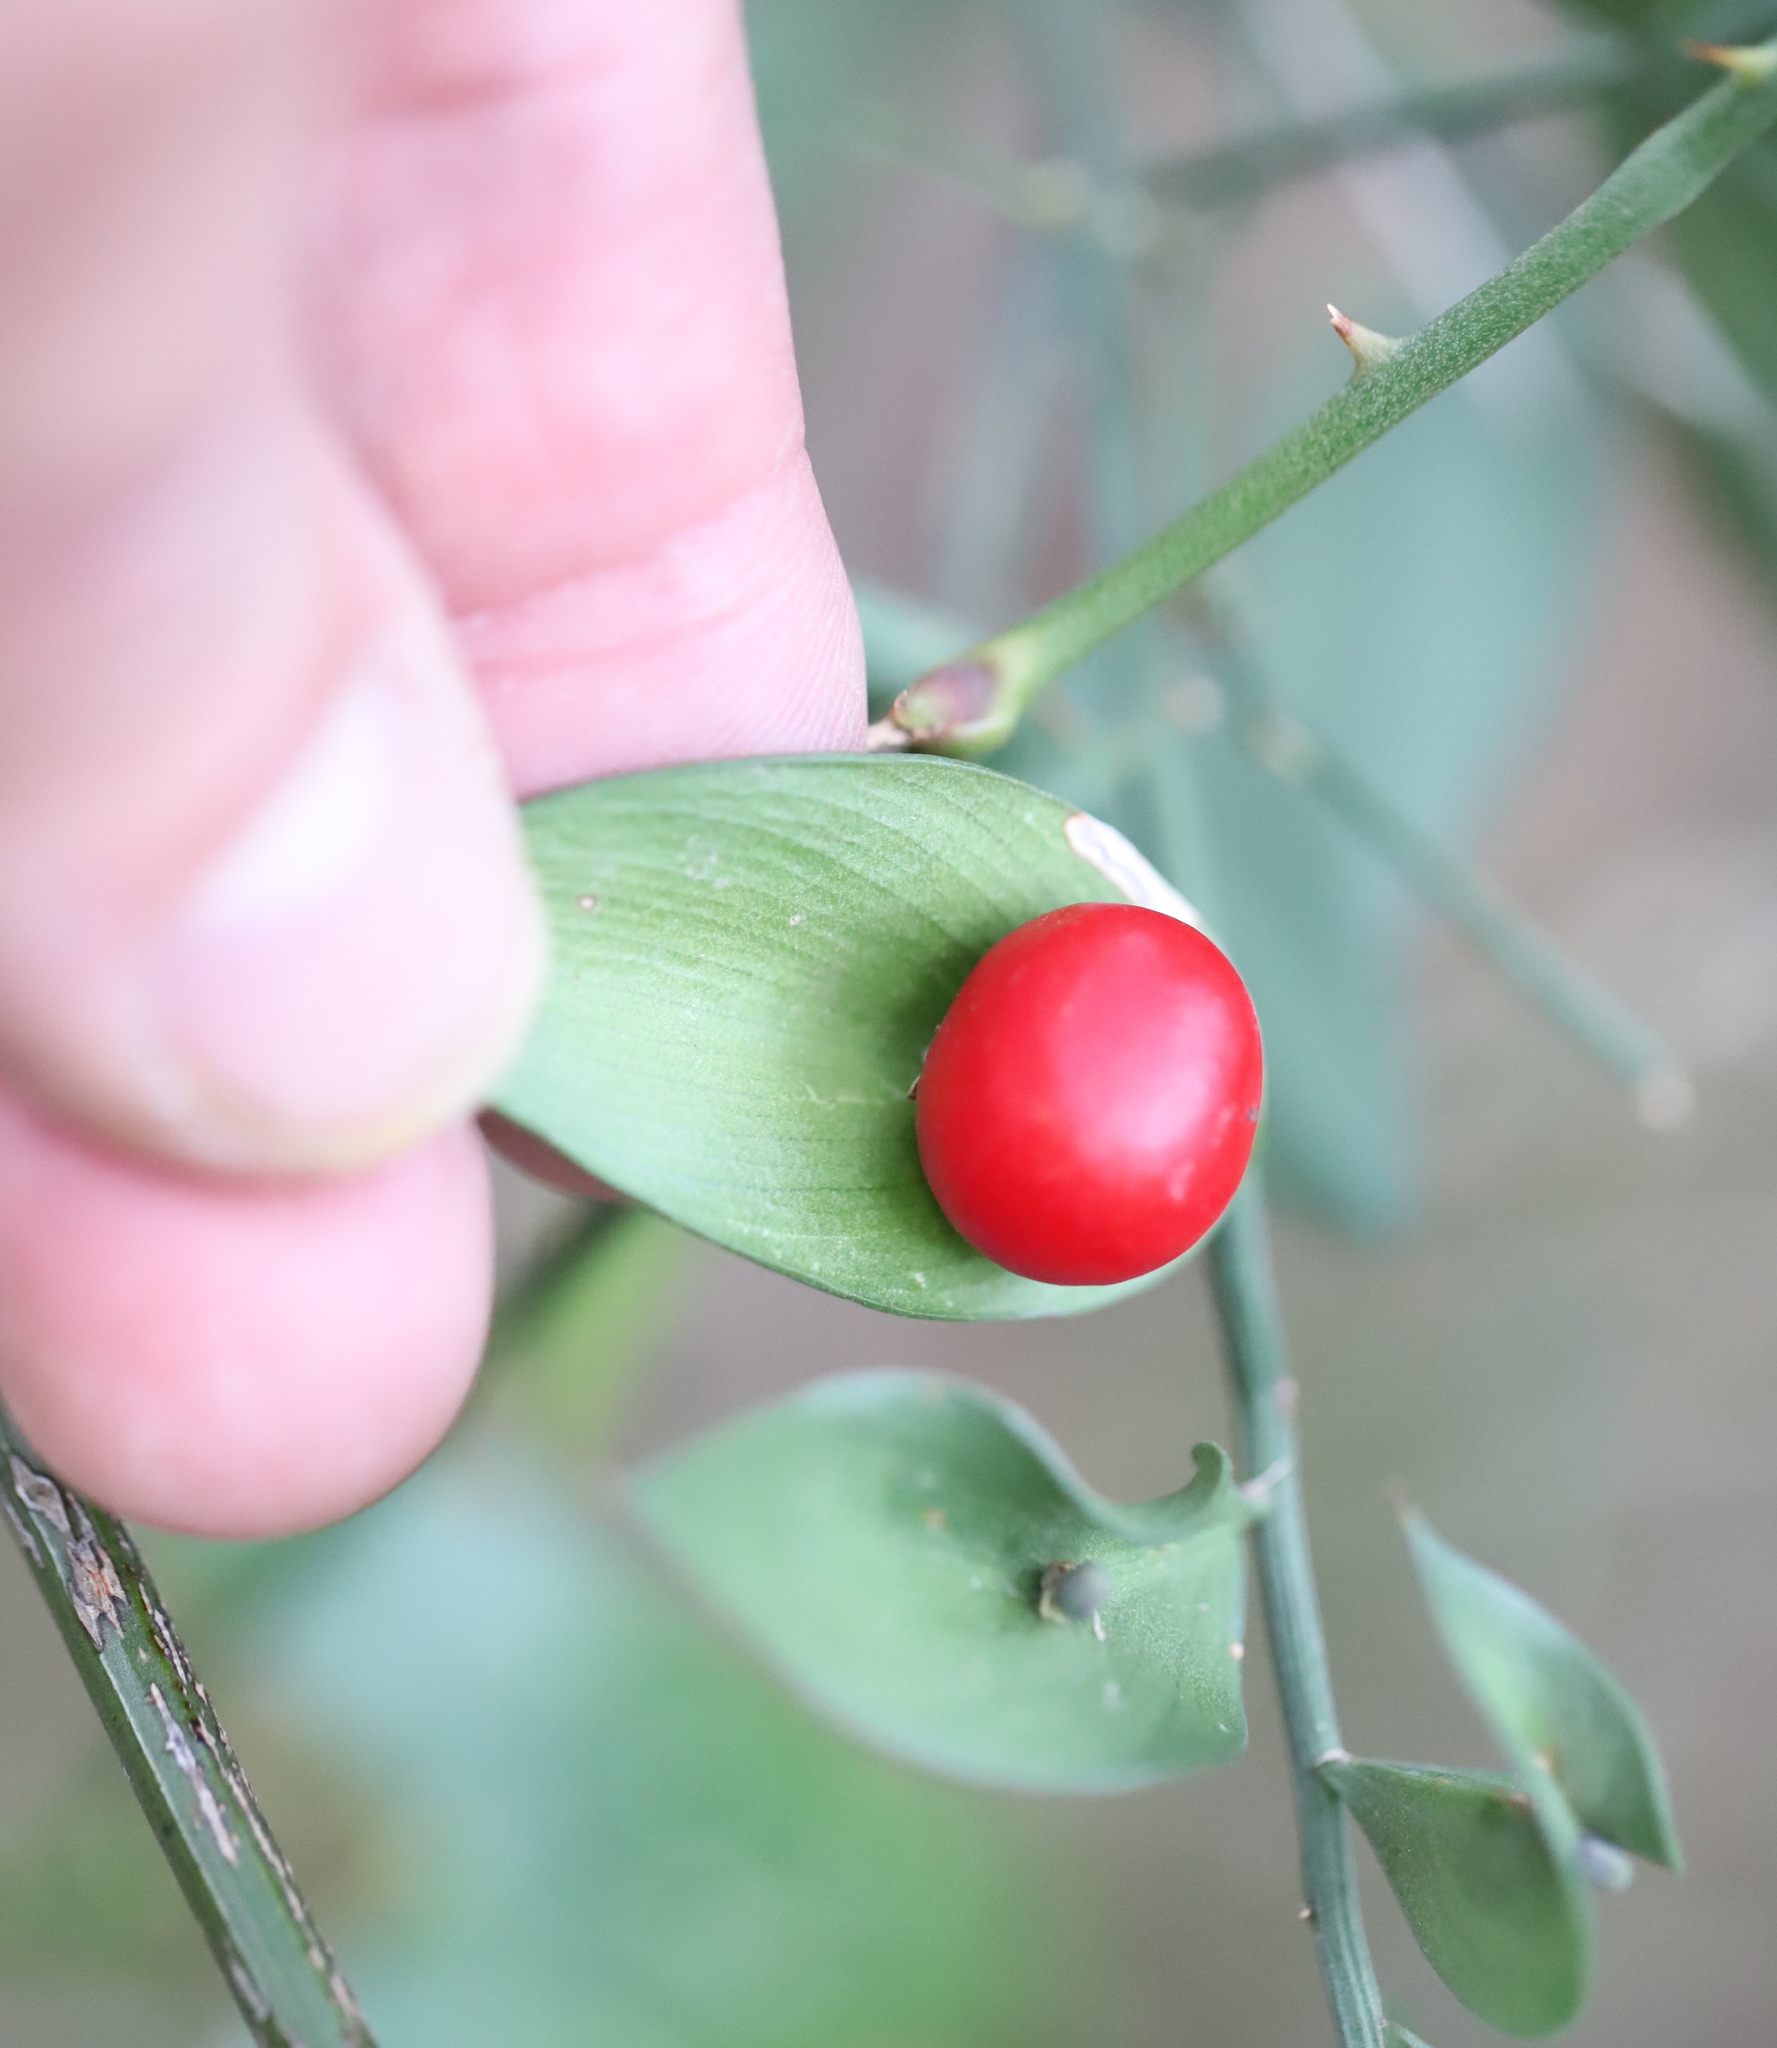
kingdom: Plantae
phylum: Tracheophyta
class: Liliopsida
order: Asparagales
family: Asparagaceae
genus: Ruscus
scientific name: Ruscus aculeatus
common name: Butcher's-broom
